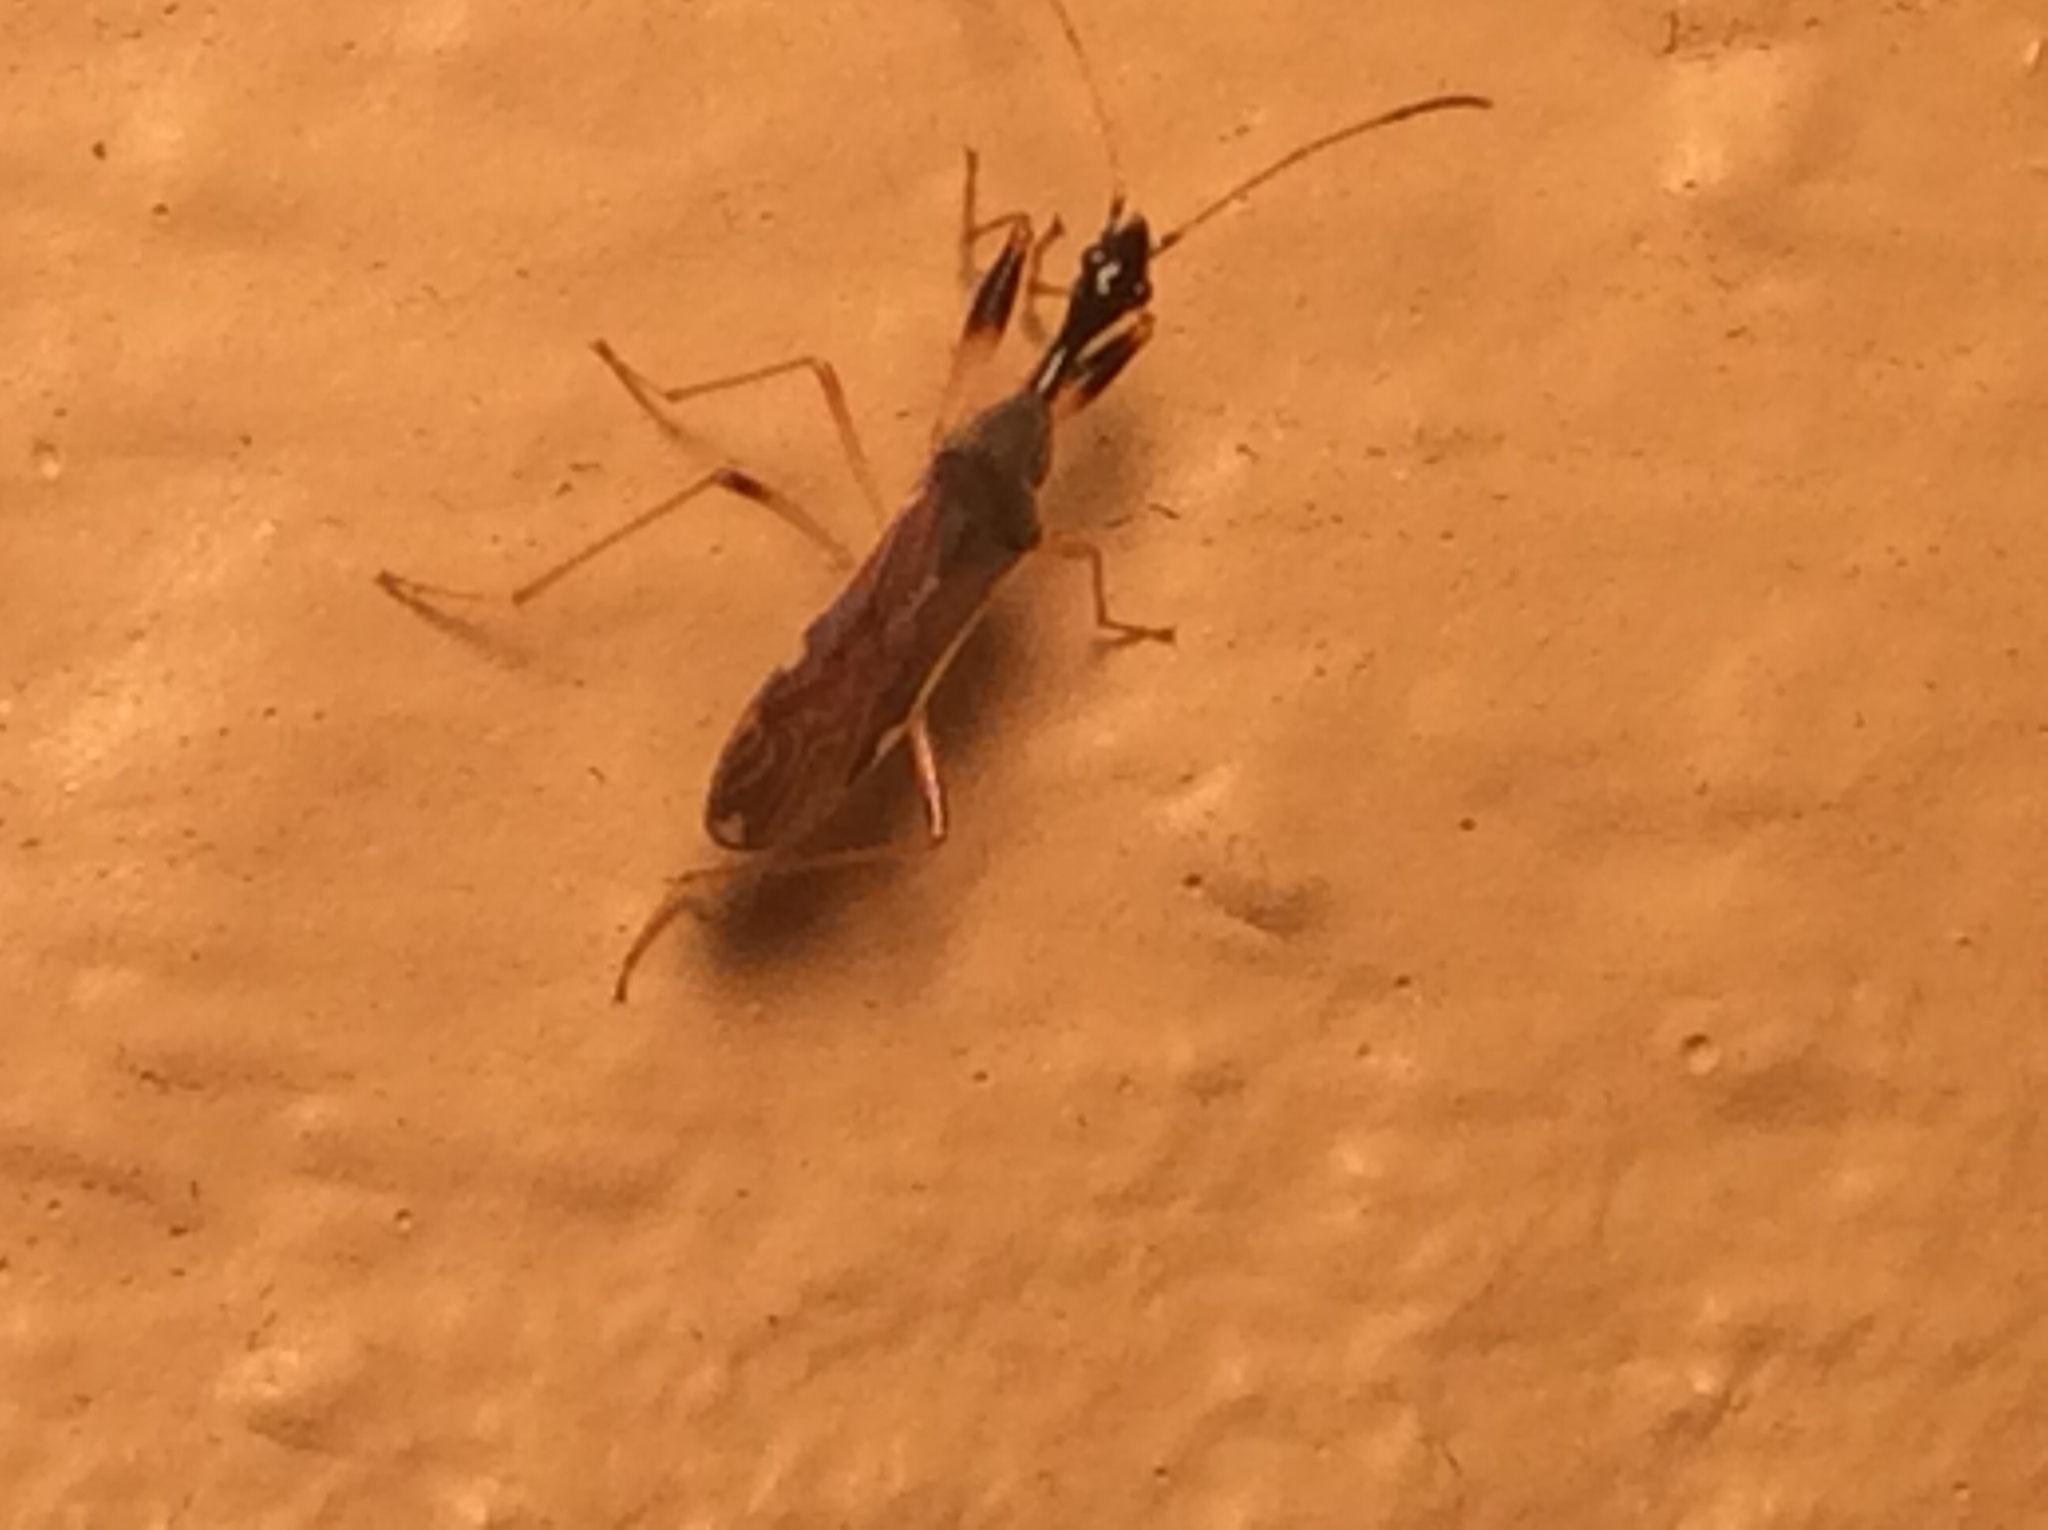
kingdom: Animalia
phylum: Arthropoda
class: Insecta
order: Hemiptera
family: Rhyparochromidae
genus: Myodocha
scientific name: Myodocha serripes
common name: Long-necked seed bug
